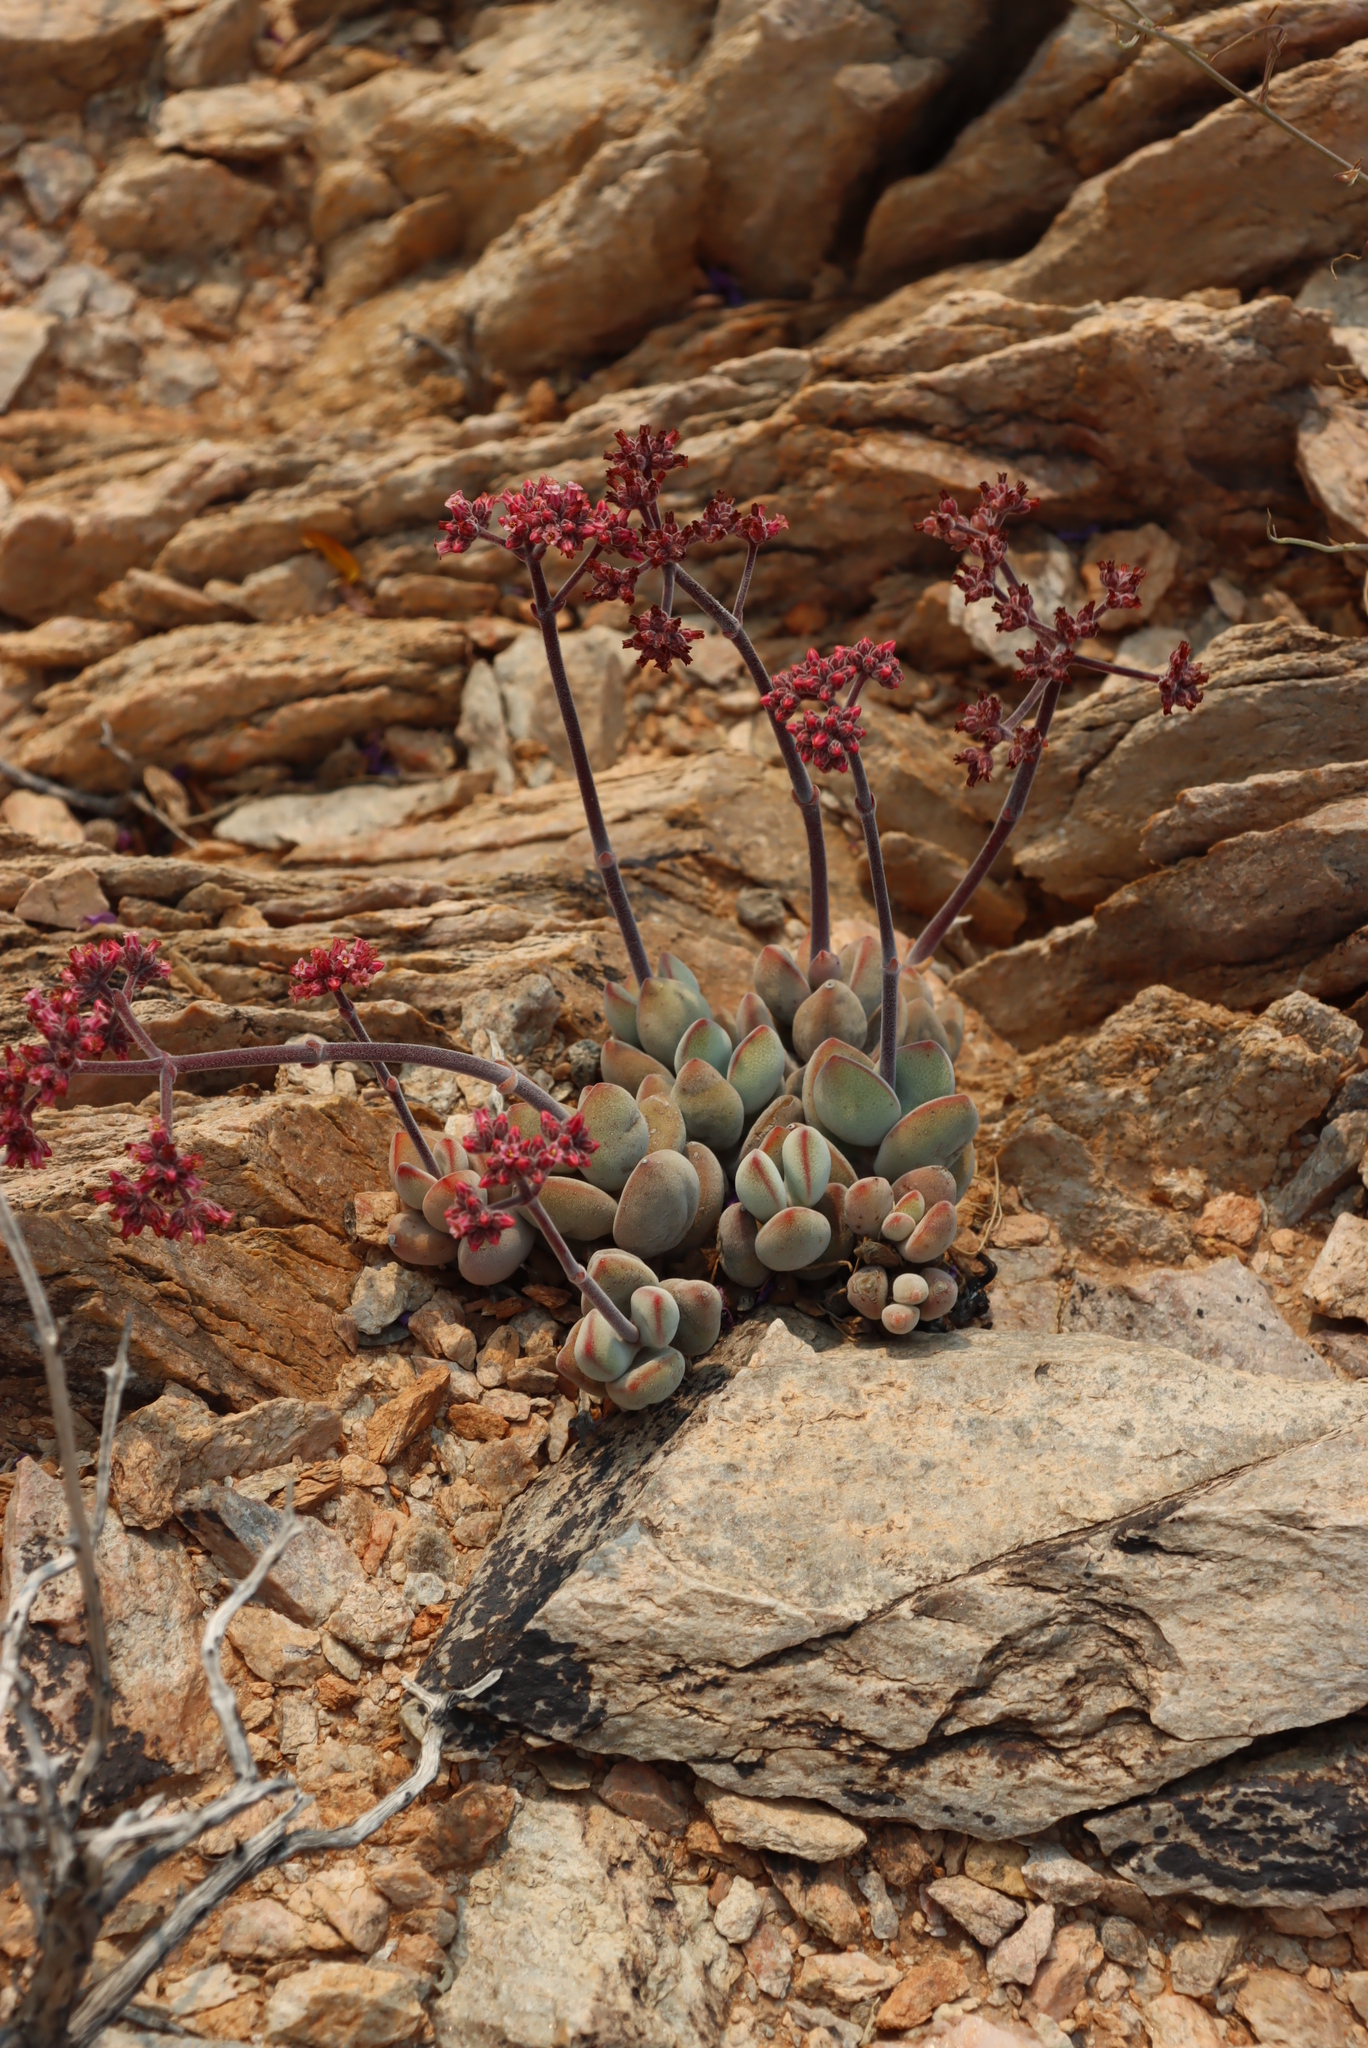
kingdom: Plantae
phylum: Tracheophyta
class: Magnoliopsida
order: Saxifragales
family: Crassulaceae
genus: Crassula
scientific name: Crassula namaquensis
